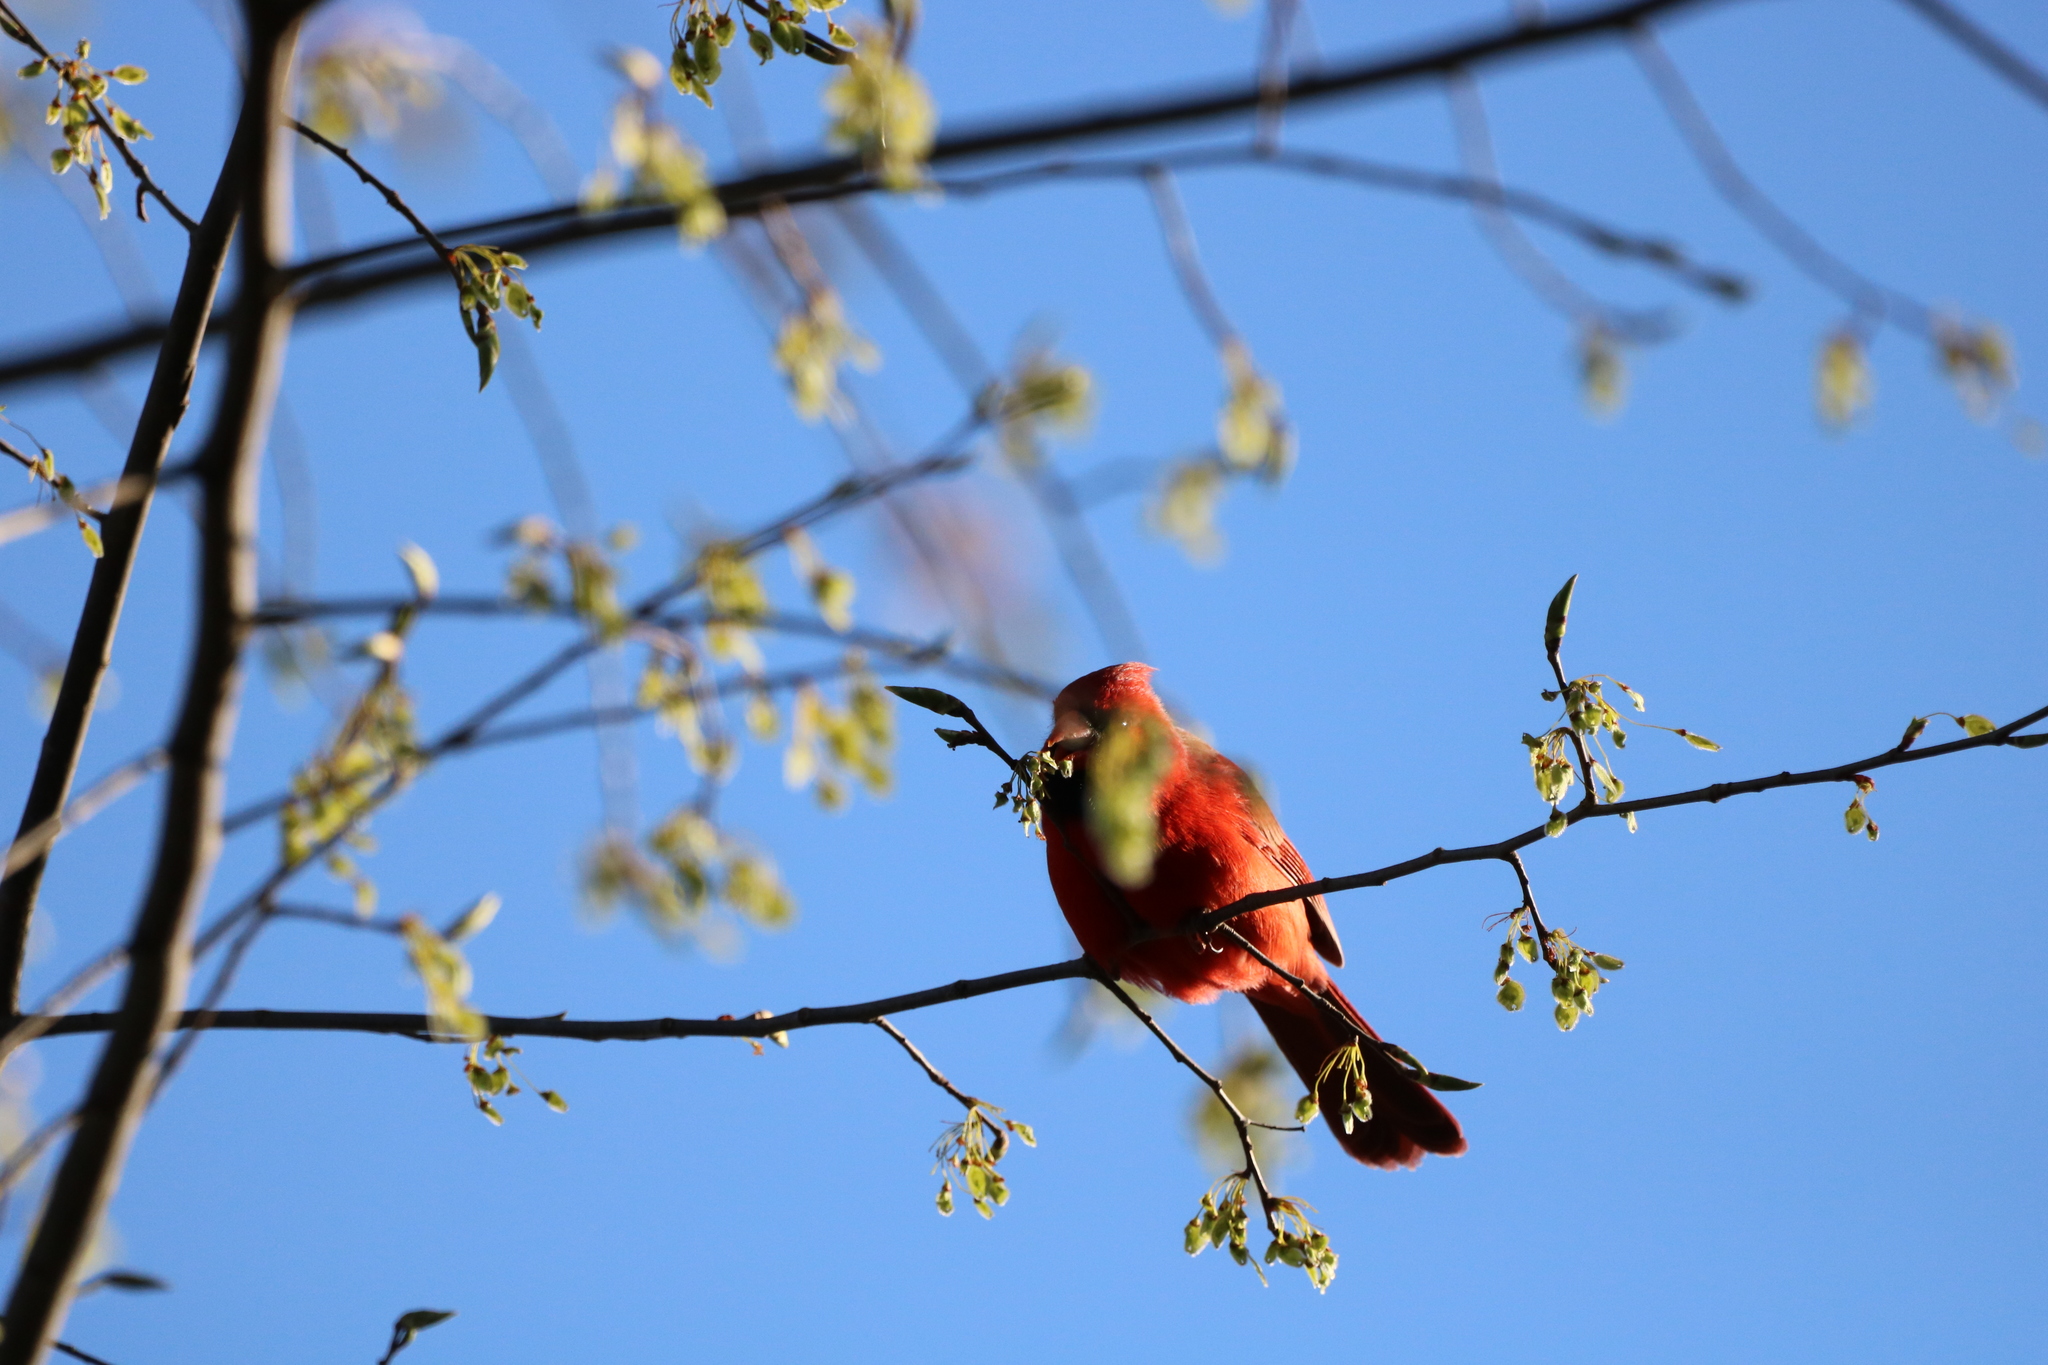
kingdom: Animalia
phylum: Chordata
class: Aves
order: Passeriformes
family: Cardinalidae
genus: Cardinalis
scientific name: Cardinalis cardinalis
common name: Northern cardinal
